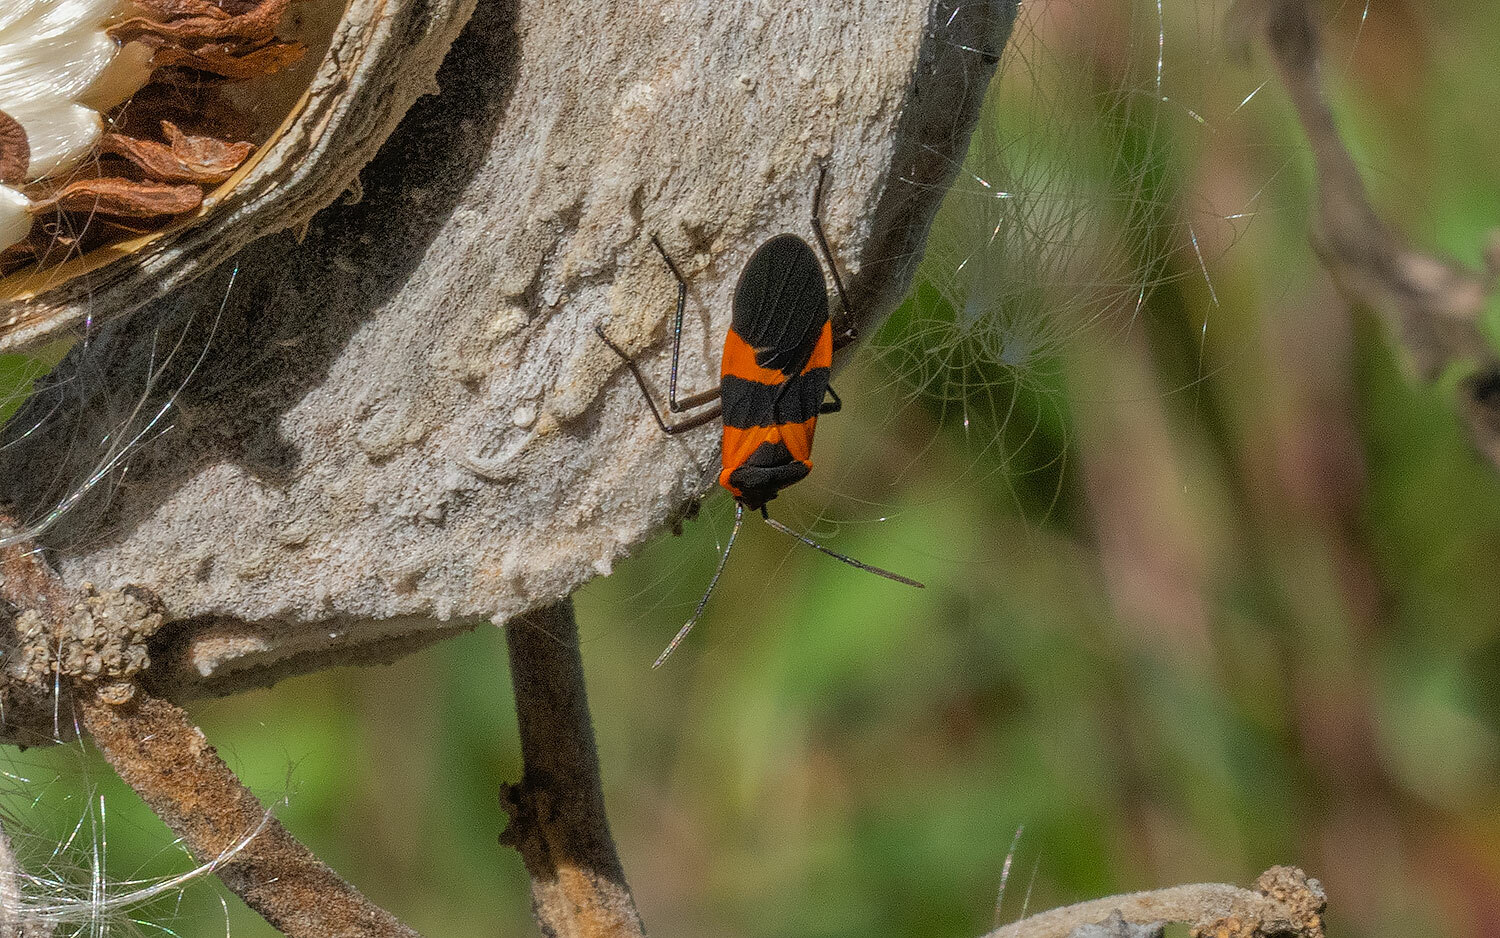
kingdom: Animalia
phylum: Arthropoda
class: Insecta
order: Hemiptera
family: Lygaeidae
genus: Oncopeltus
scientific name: Oncopeltus fasciatus
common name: Large milkweed bug
